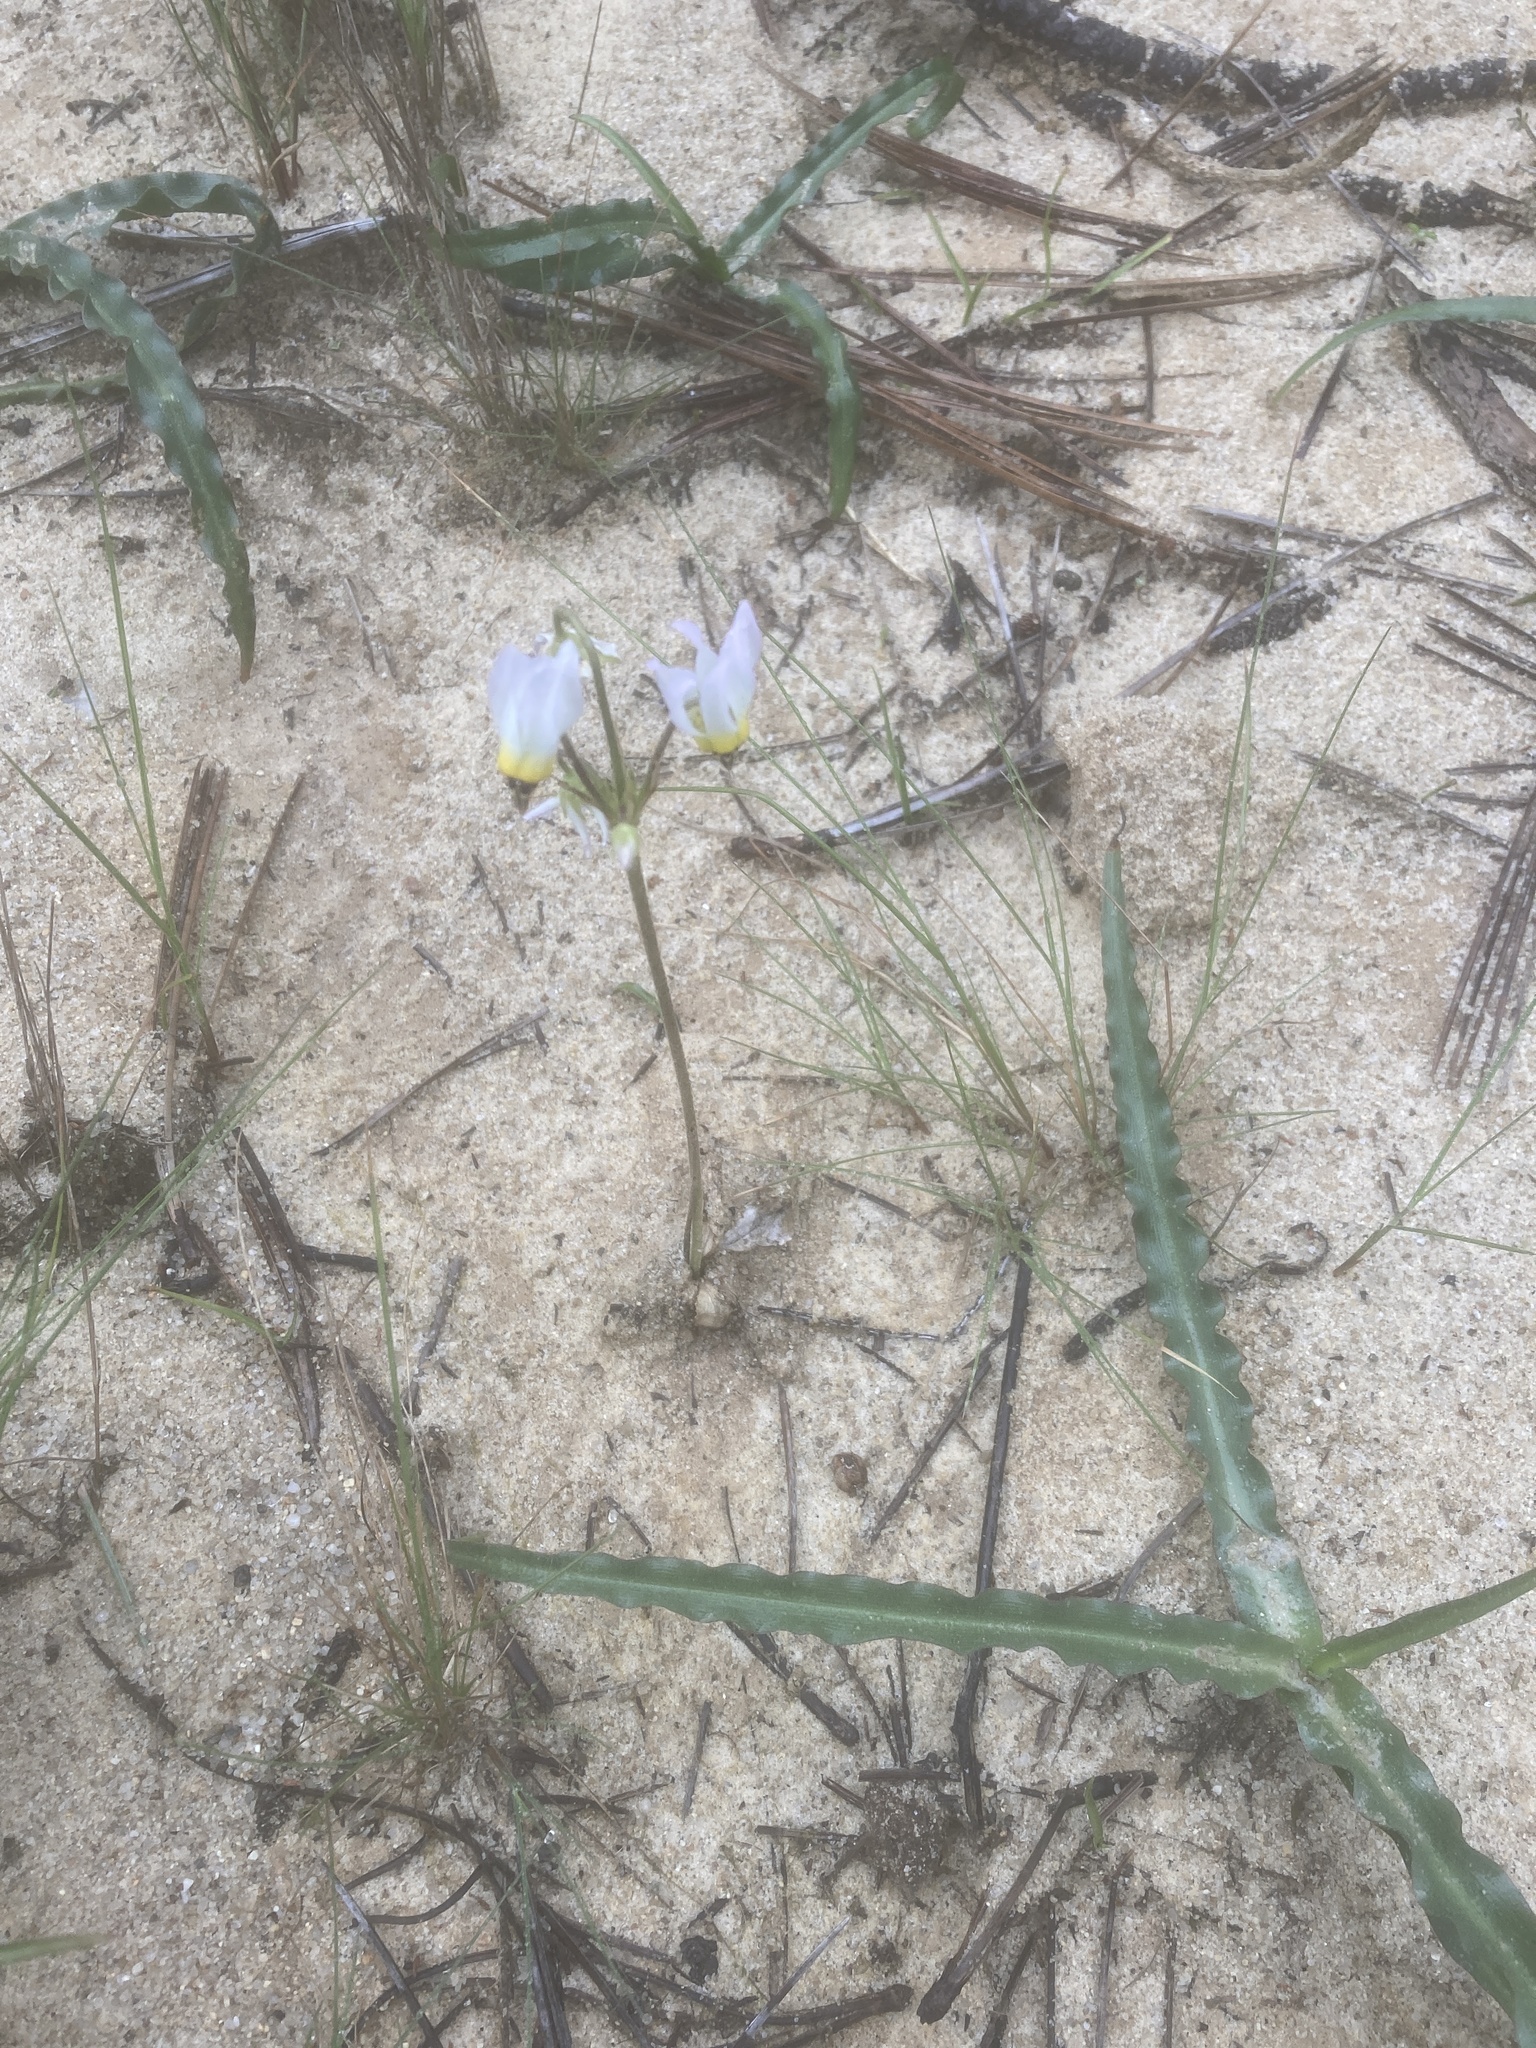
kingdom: Plantae
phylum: Tracheophyta
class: Magnoliopsida
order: Ericales
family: Primulaceae
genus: Dodecatheon
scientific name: Dodecatheon clevelandii
